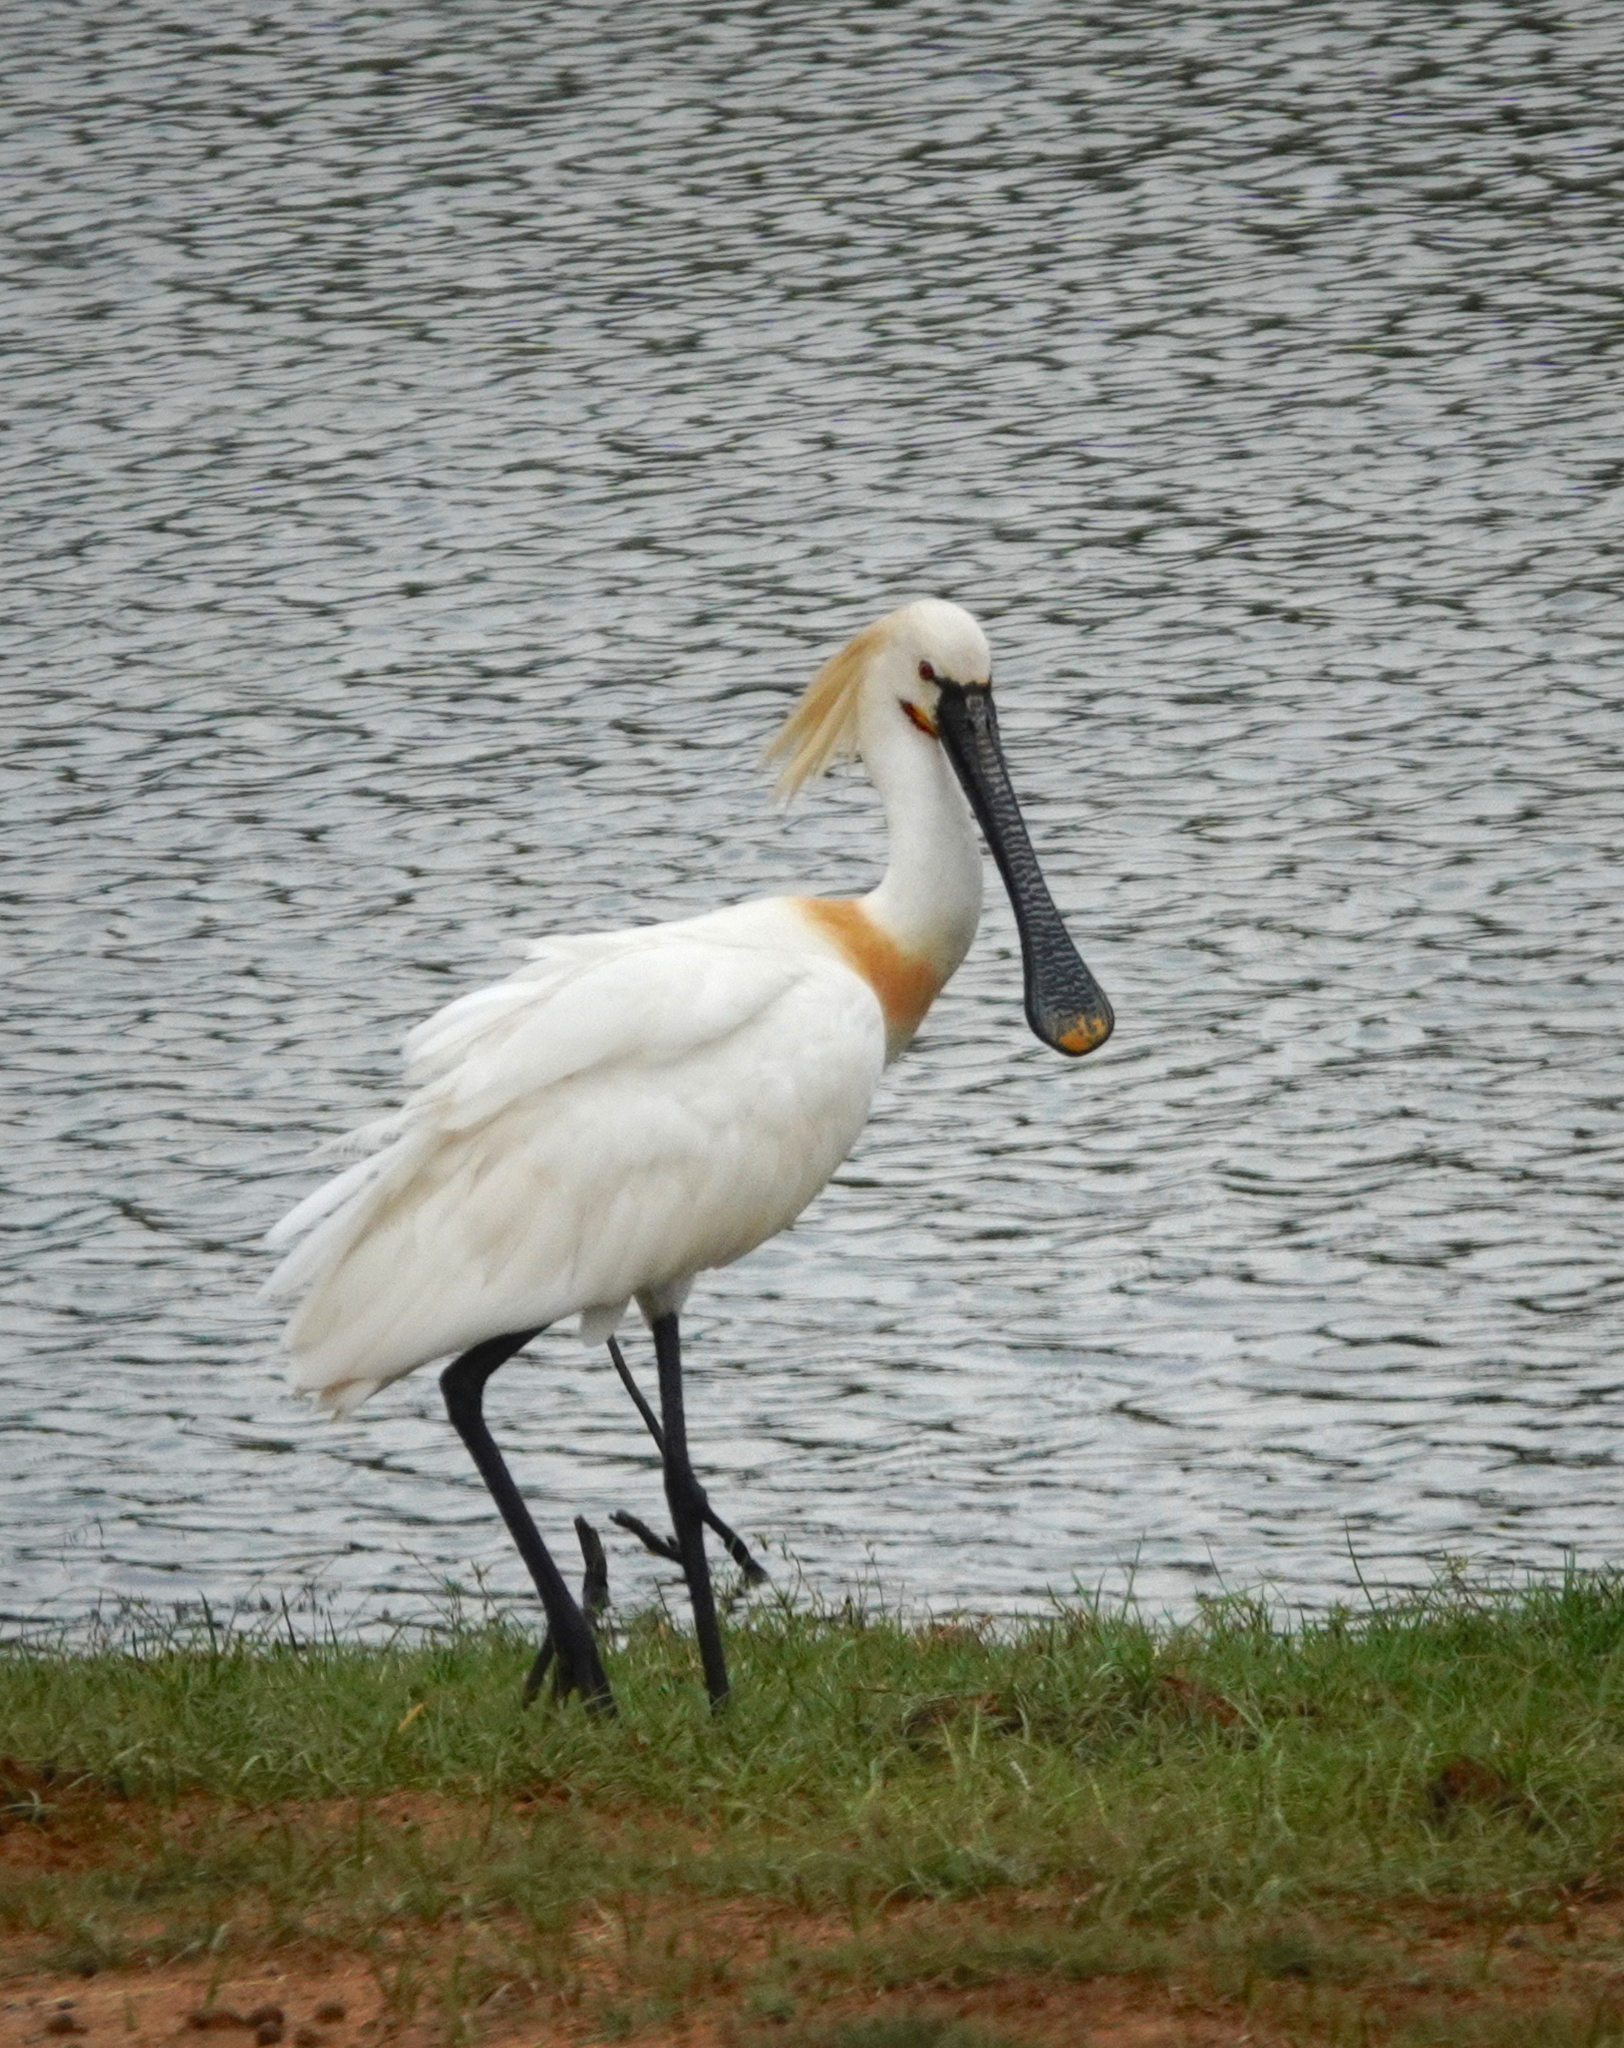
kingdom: Animalia
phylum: Chordata
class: Aves
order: Pelecaniformes
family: Threskiornithidae
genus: Platalea
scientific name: Platalea leucorodia
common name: Eurasian spoonbill
